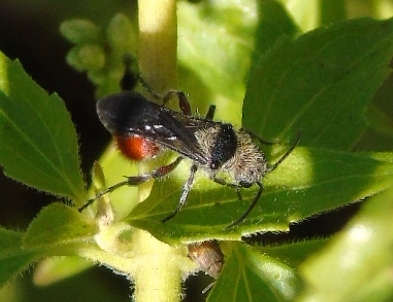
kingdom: Animalia
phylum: Arthropoda
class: Insecta
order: Hymenoptera
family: Mutillidae
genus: Dasymutilla
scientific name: Dasymutilla foxi
